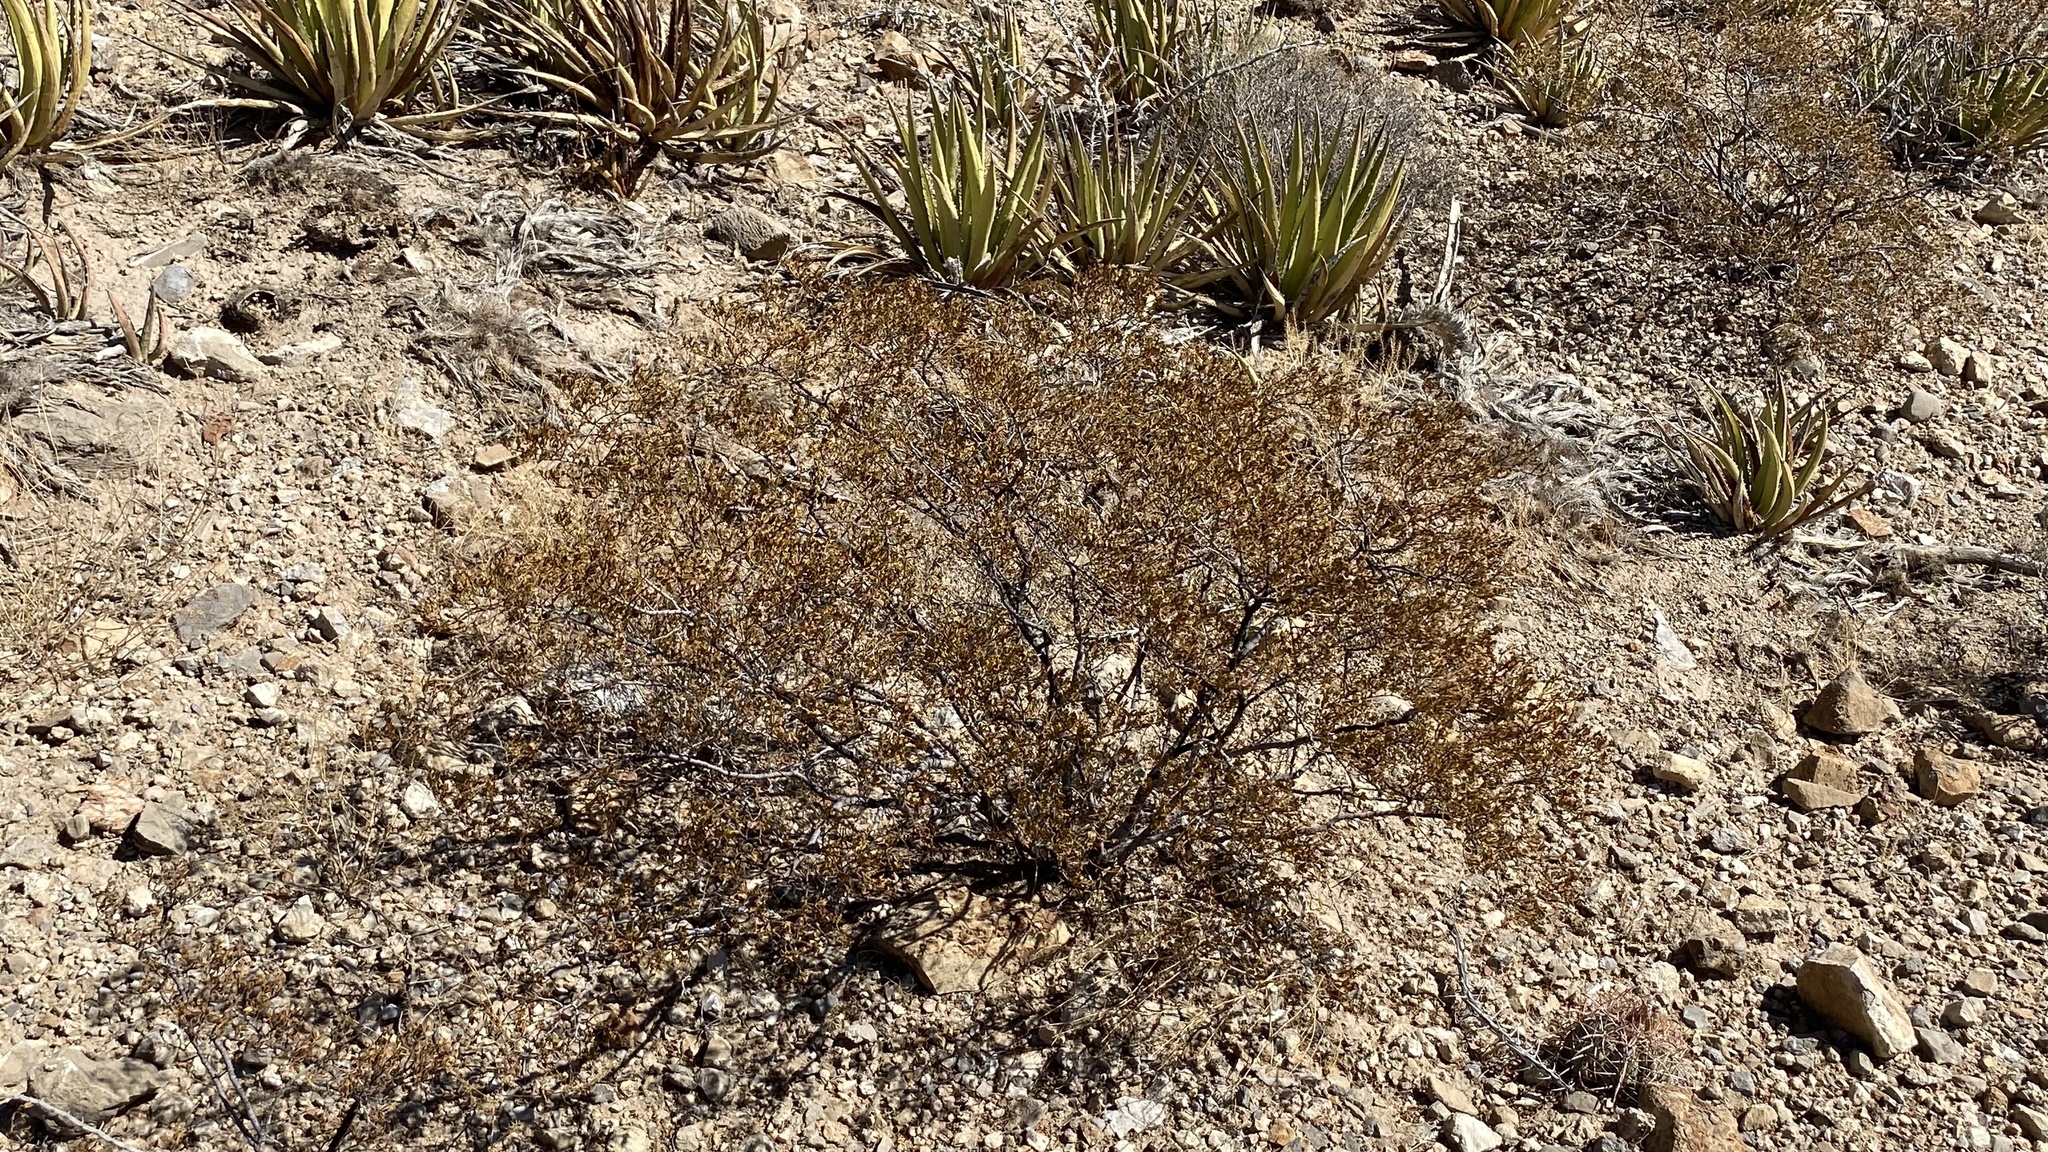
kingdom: Plantae
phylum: Tracheophyta
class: Magnoliopsida
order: Zygophyllales
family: Zygophyllaceae
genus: Larrea
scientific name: Larrea tridentata
